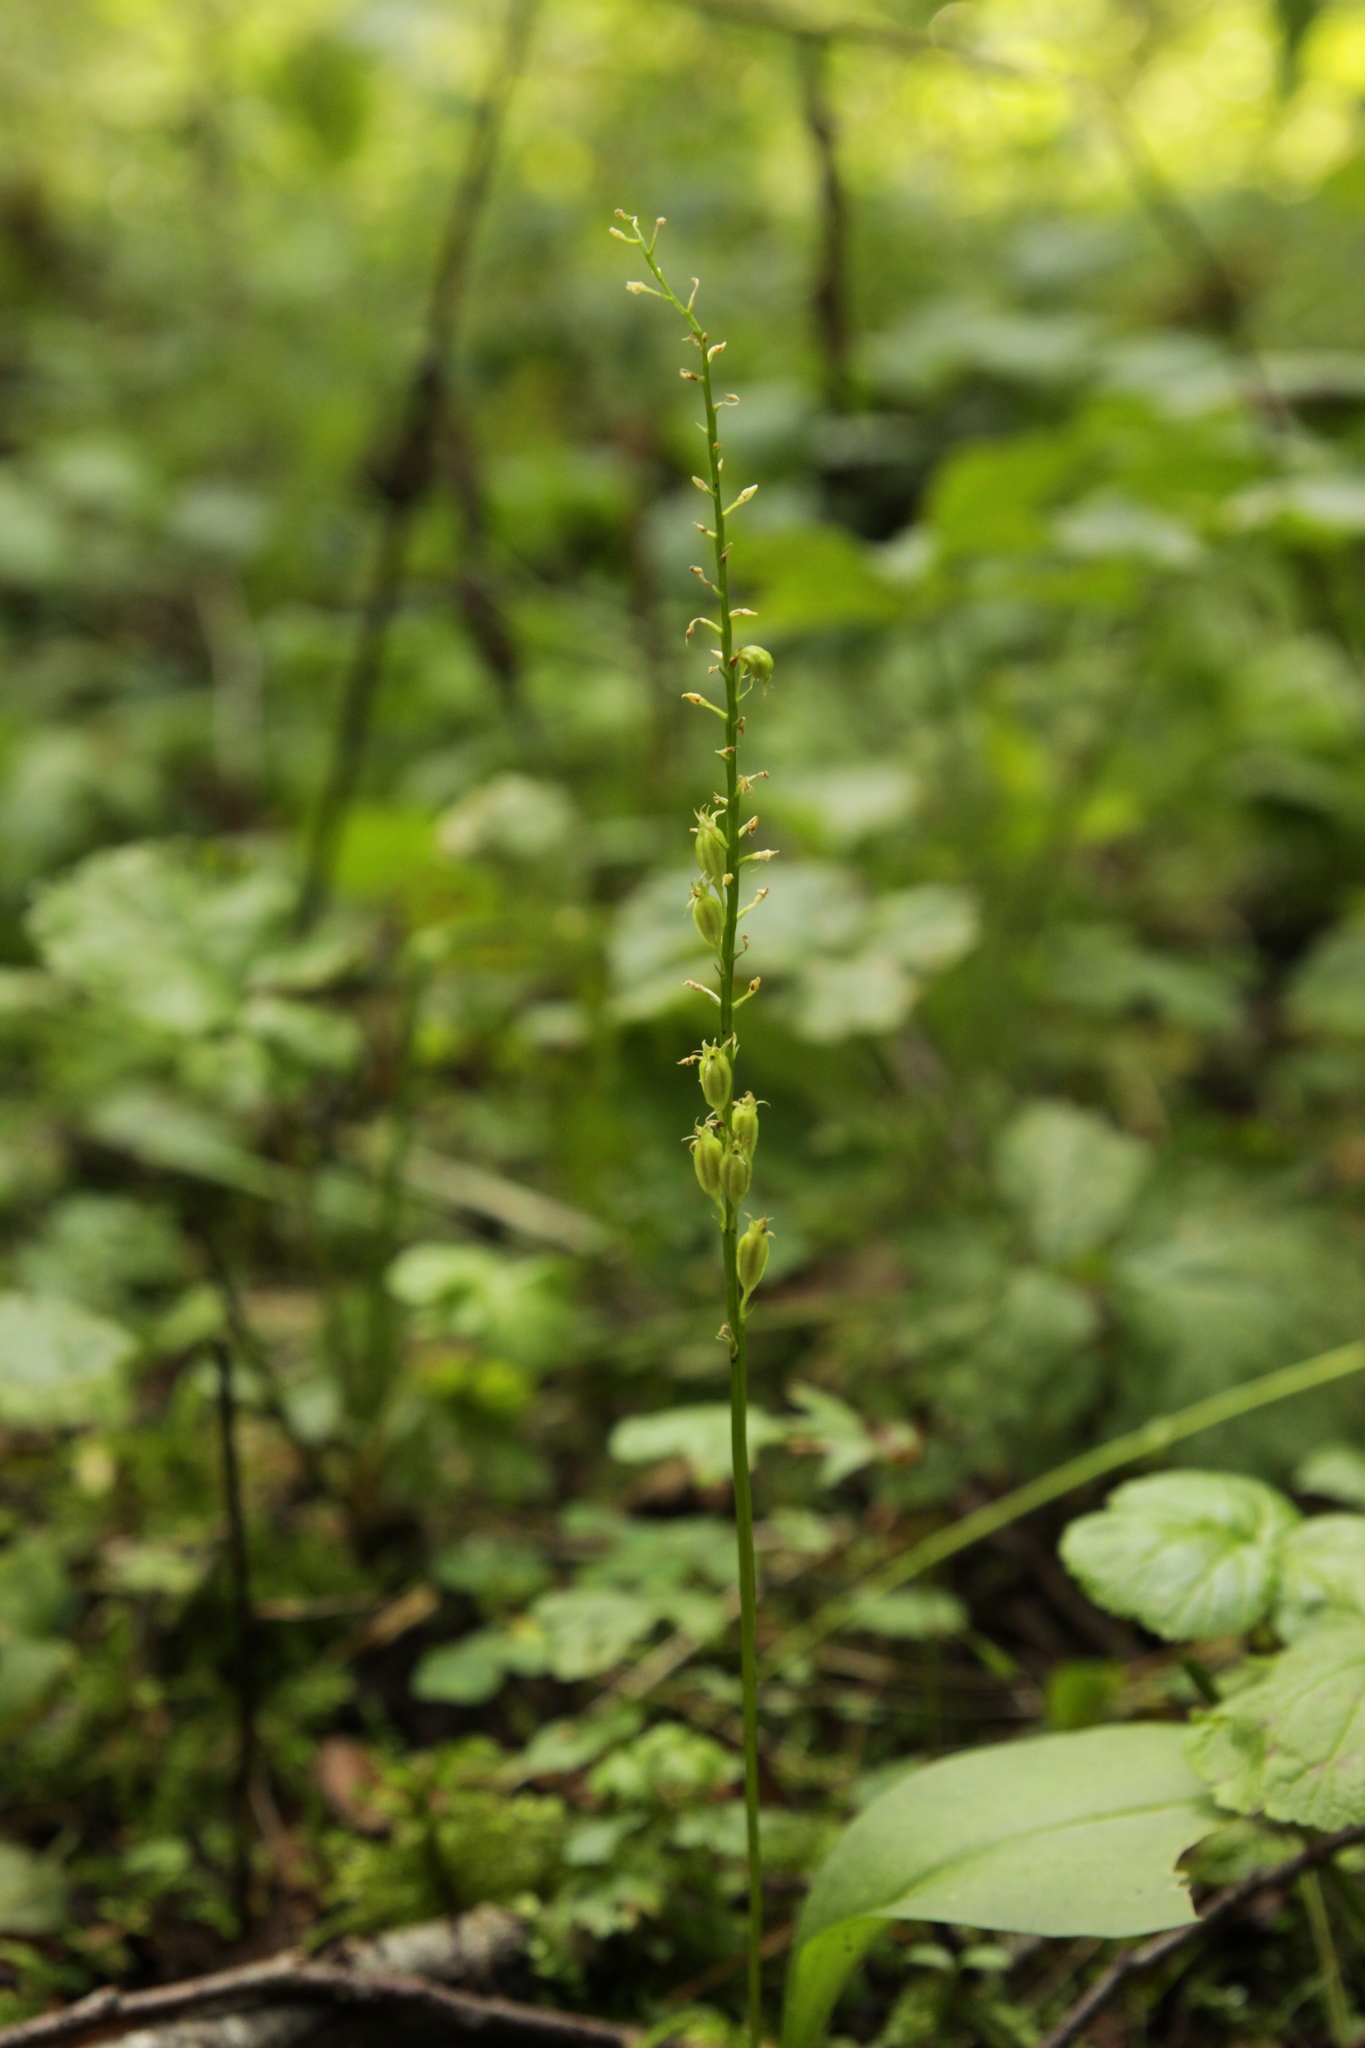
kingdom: Plantae
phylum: Tracheophyta
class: Liliopsida
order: Asparagales
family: Orchidaceae
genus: Malaxis
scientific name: Malaxis monophyllos
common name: White adder's-mouth
